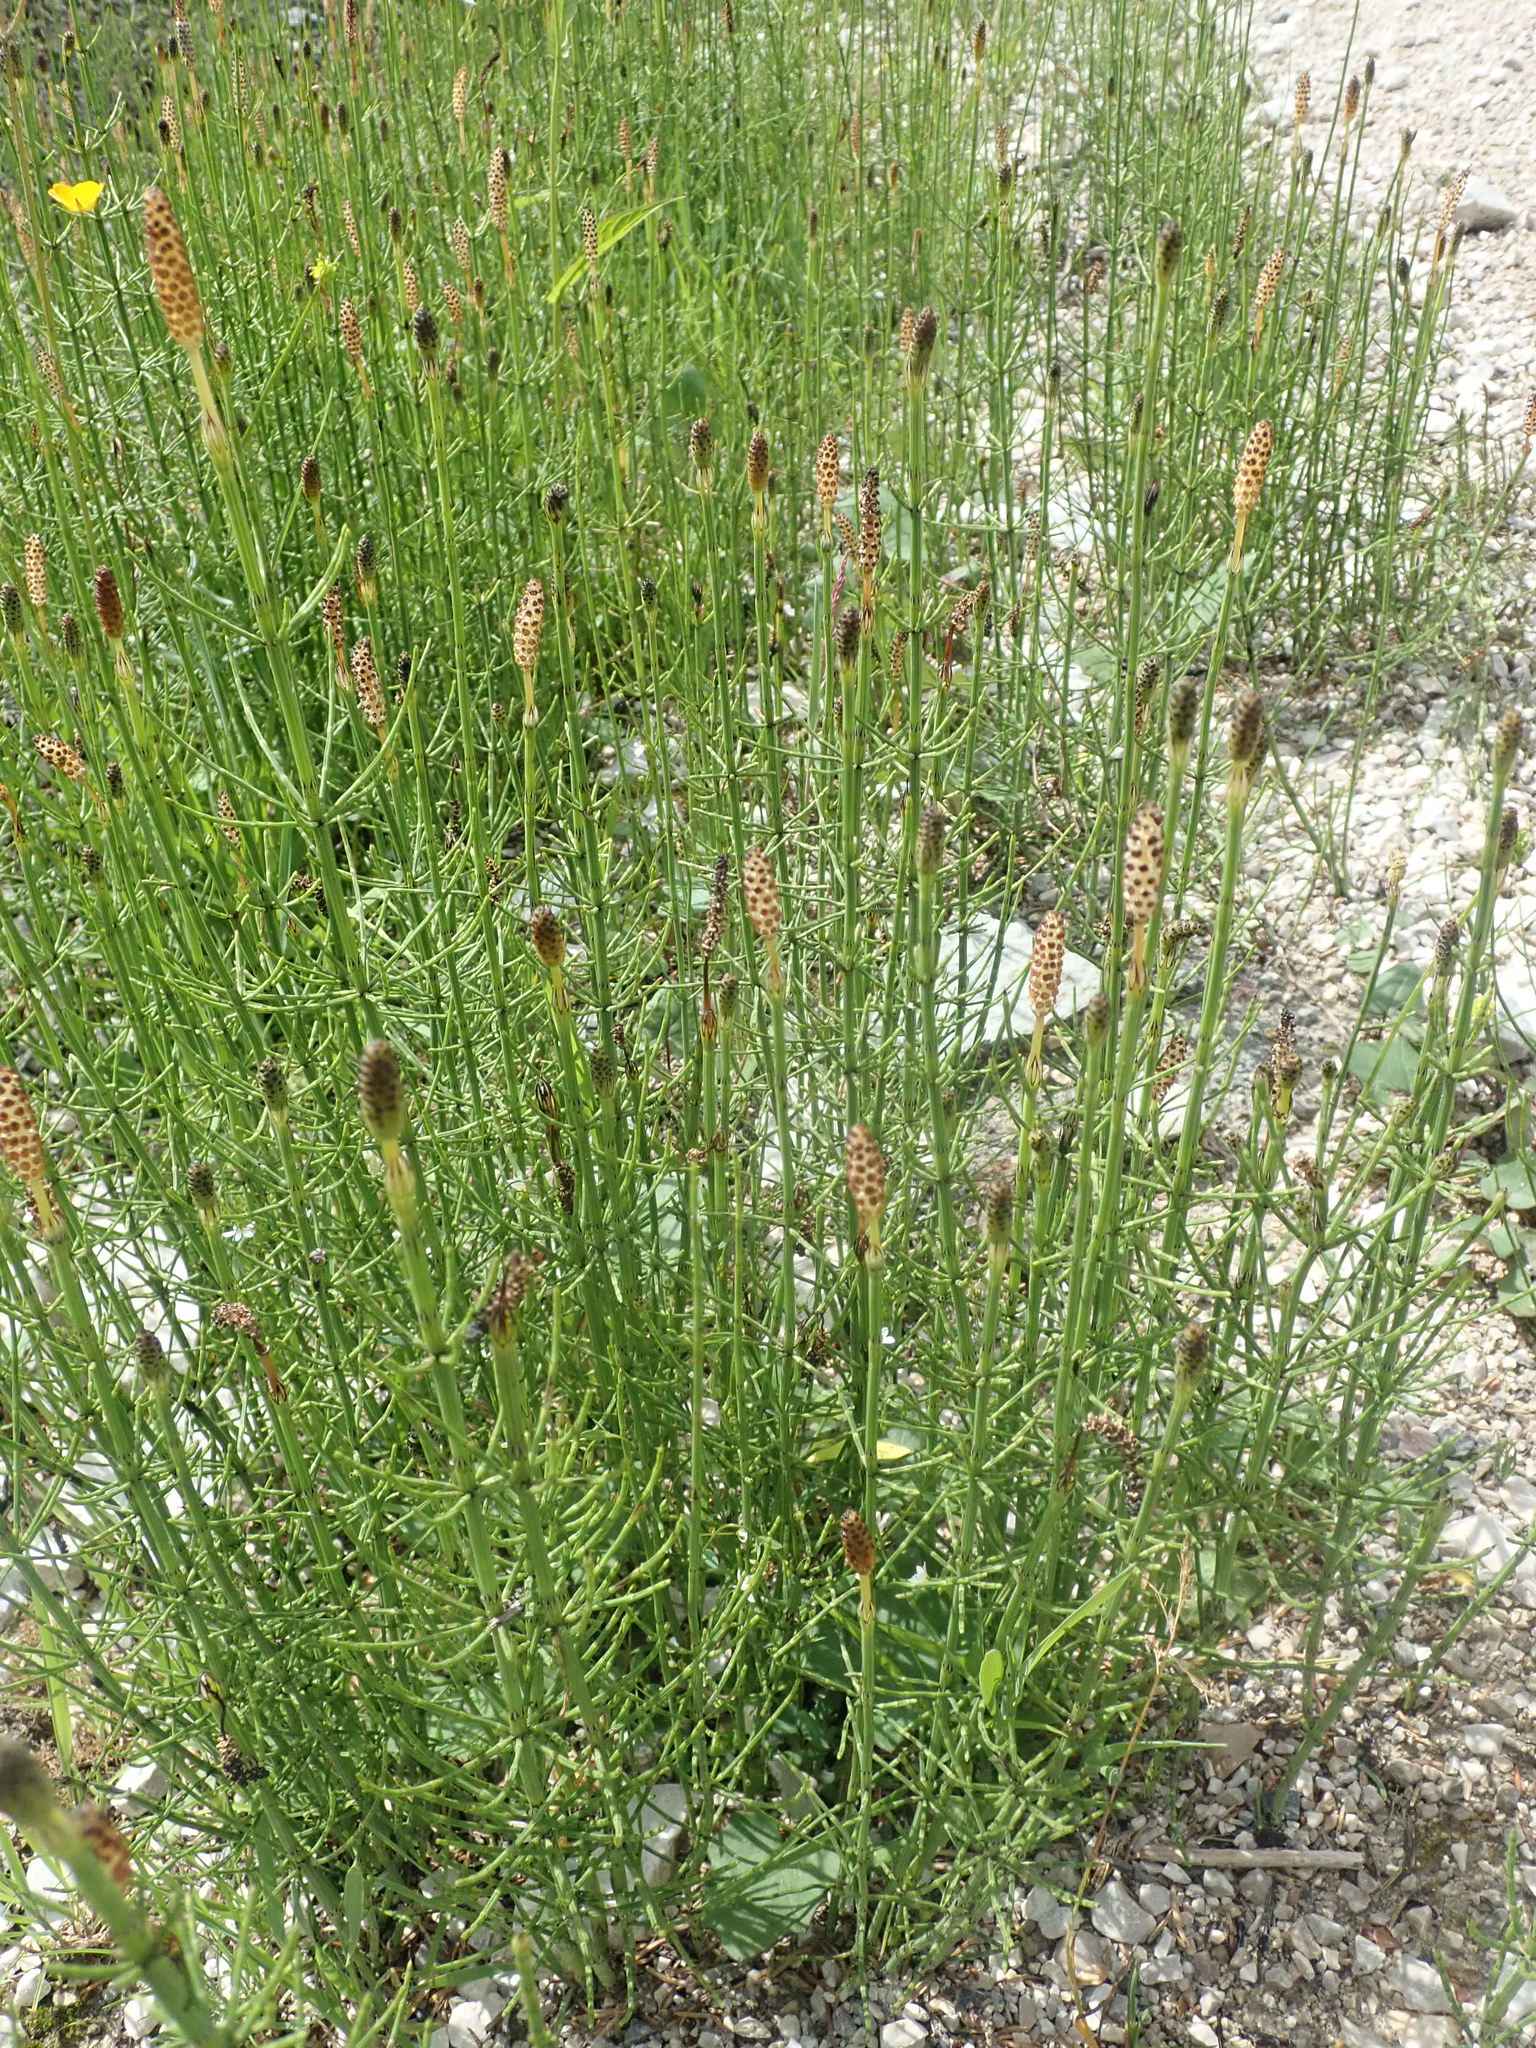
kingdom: Plantae
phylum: Tracheophyta
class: Polypodiopsida
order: Equisetales
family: Equisetaceae
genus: Equisetum
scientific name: Equisetum palustre
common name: Marsh horsetail
